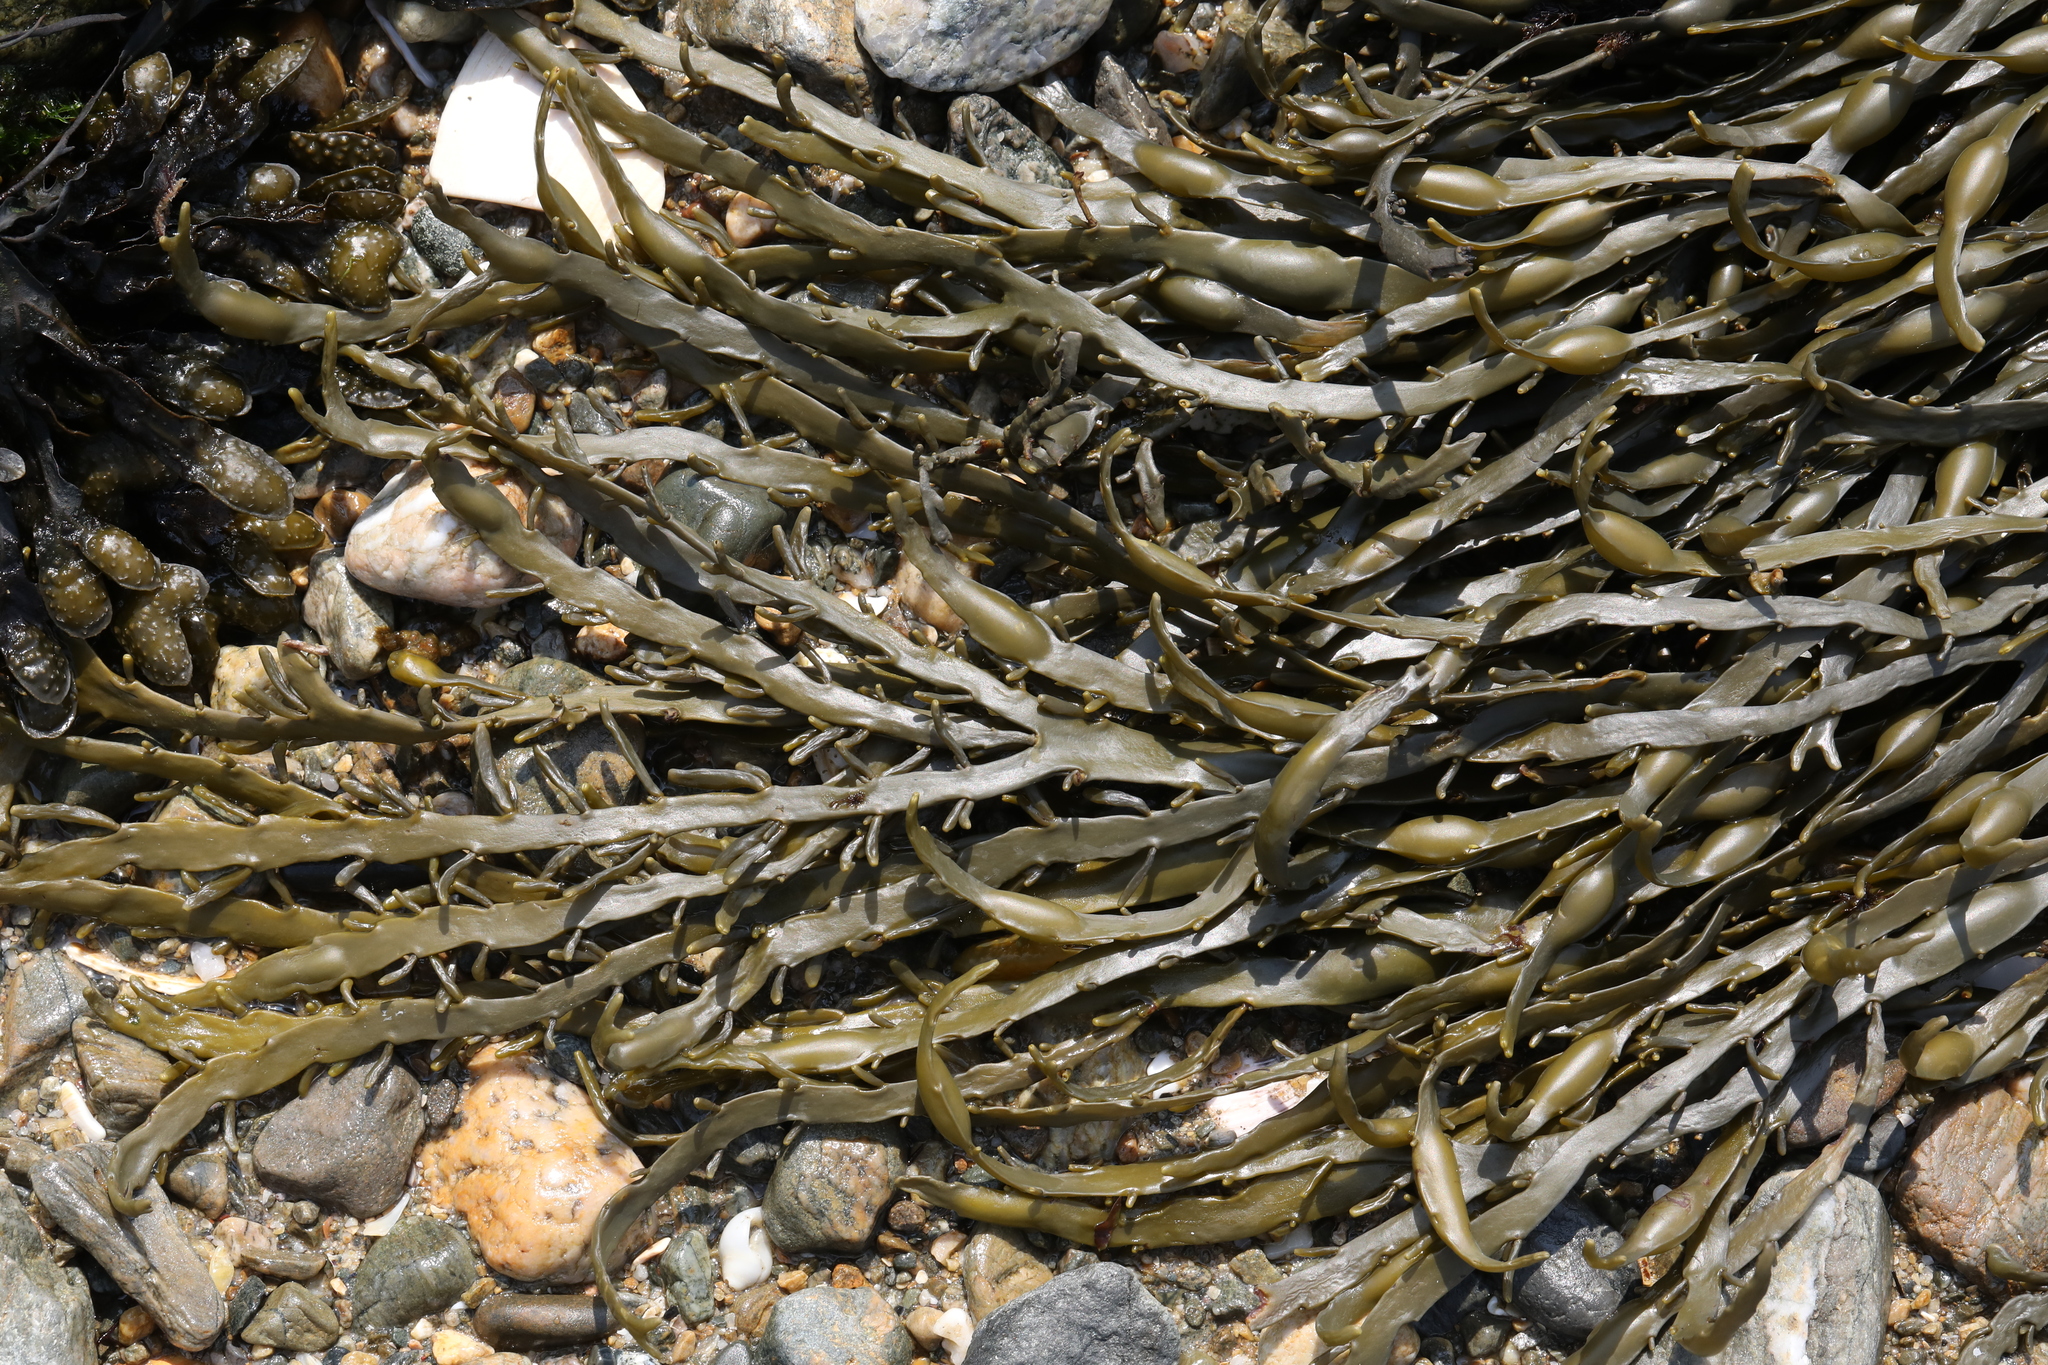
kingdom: Chromista
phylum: Ochrophyta
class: Phaeophyceae
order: Fucales
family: Fucaceae
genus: Ascophyllum
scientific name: Ascophyllum nodosum
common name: Knotted wrack
